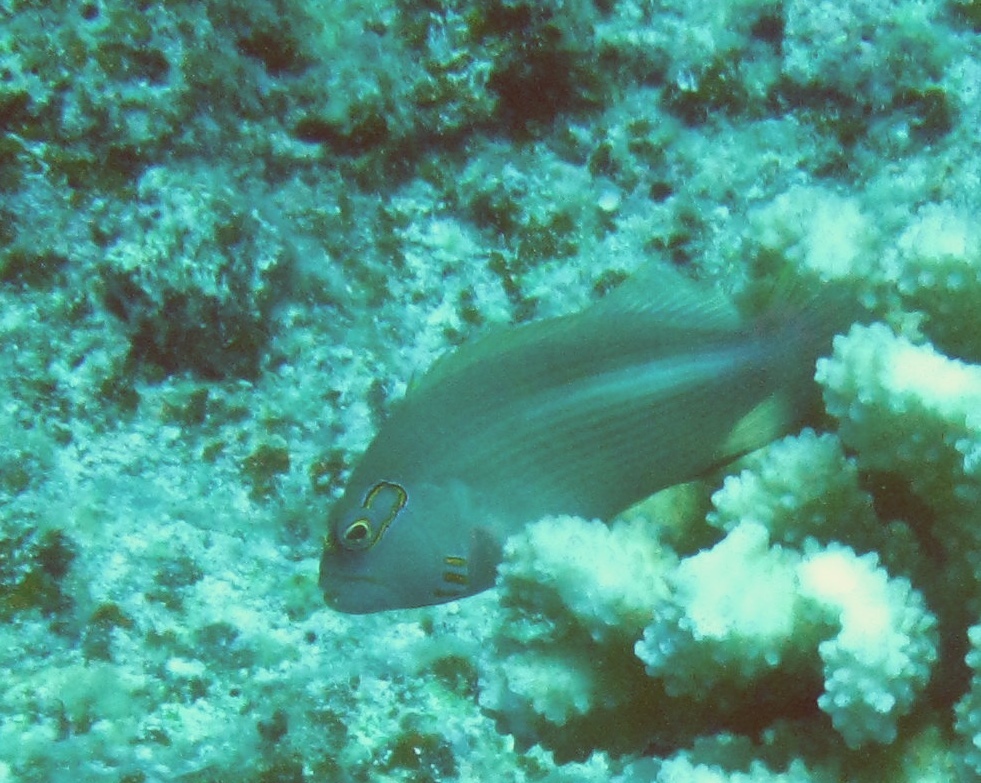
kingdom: Animalia
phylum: Chordata
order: Perciformes
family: Cirrhitidae
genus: Paracirrhites
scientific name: Paracirrhites arcatus
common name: Arc-eye hawkfish
